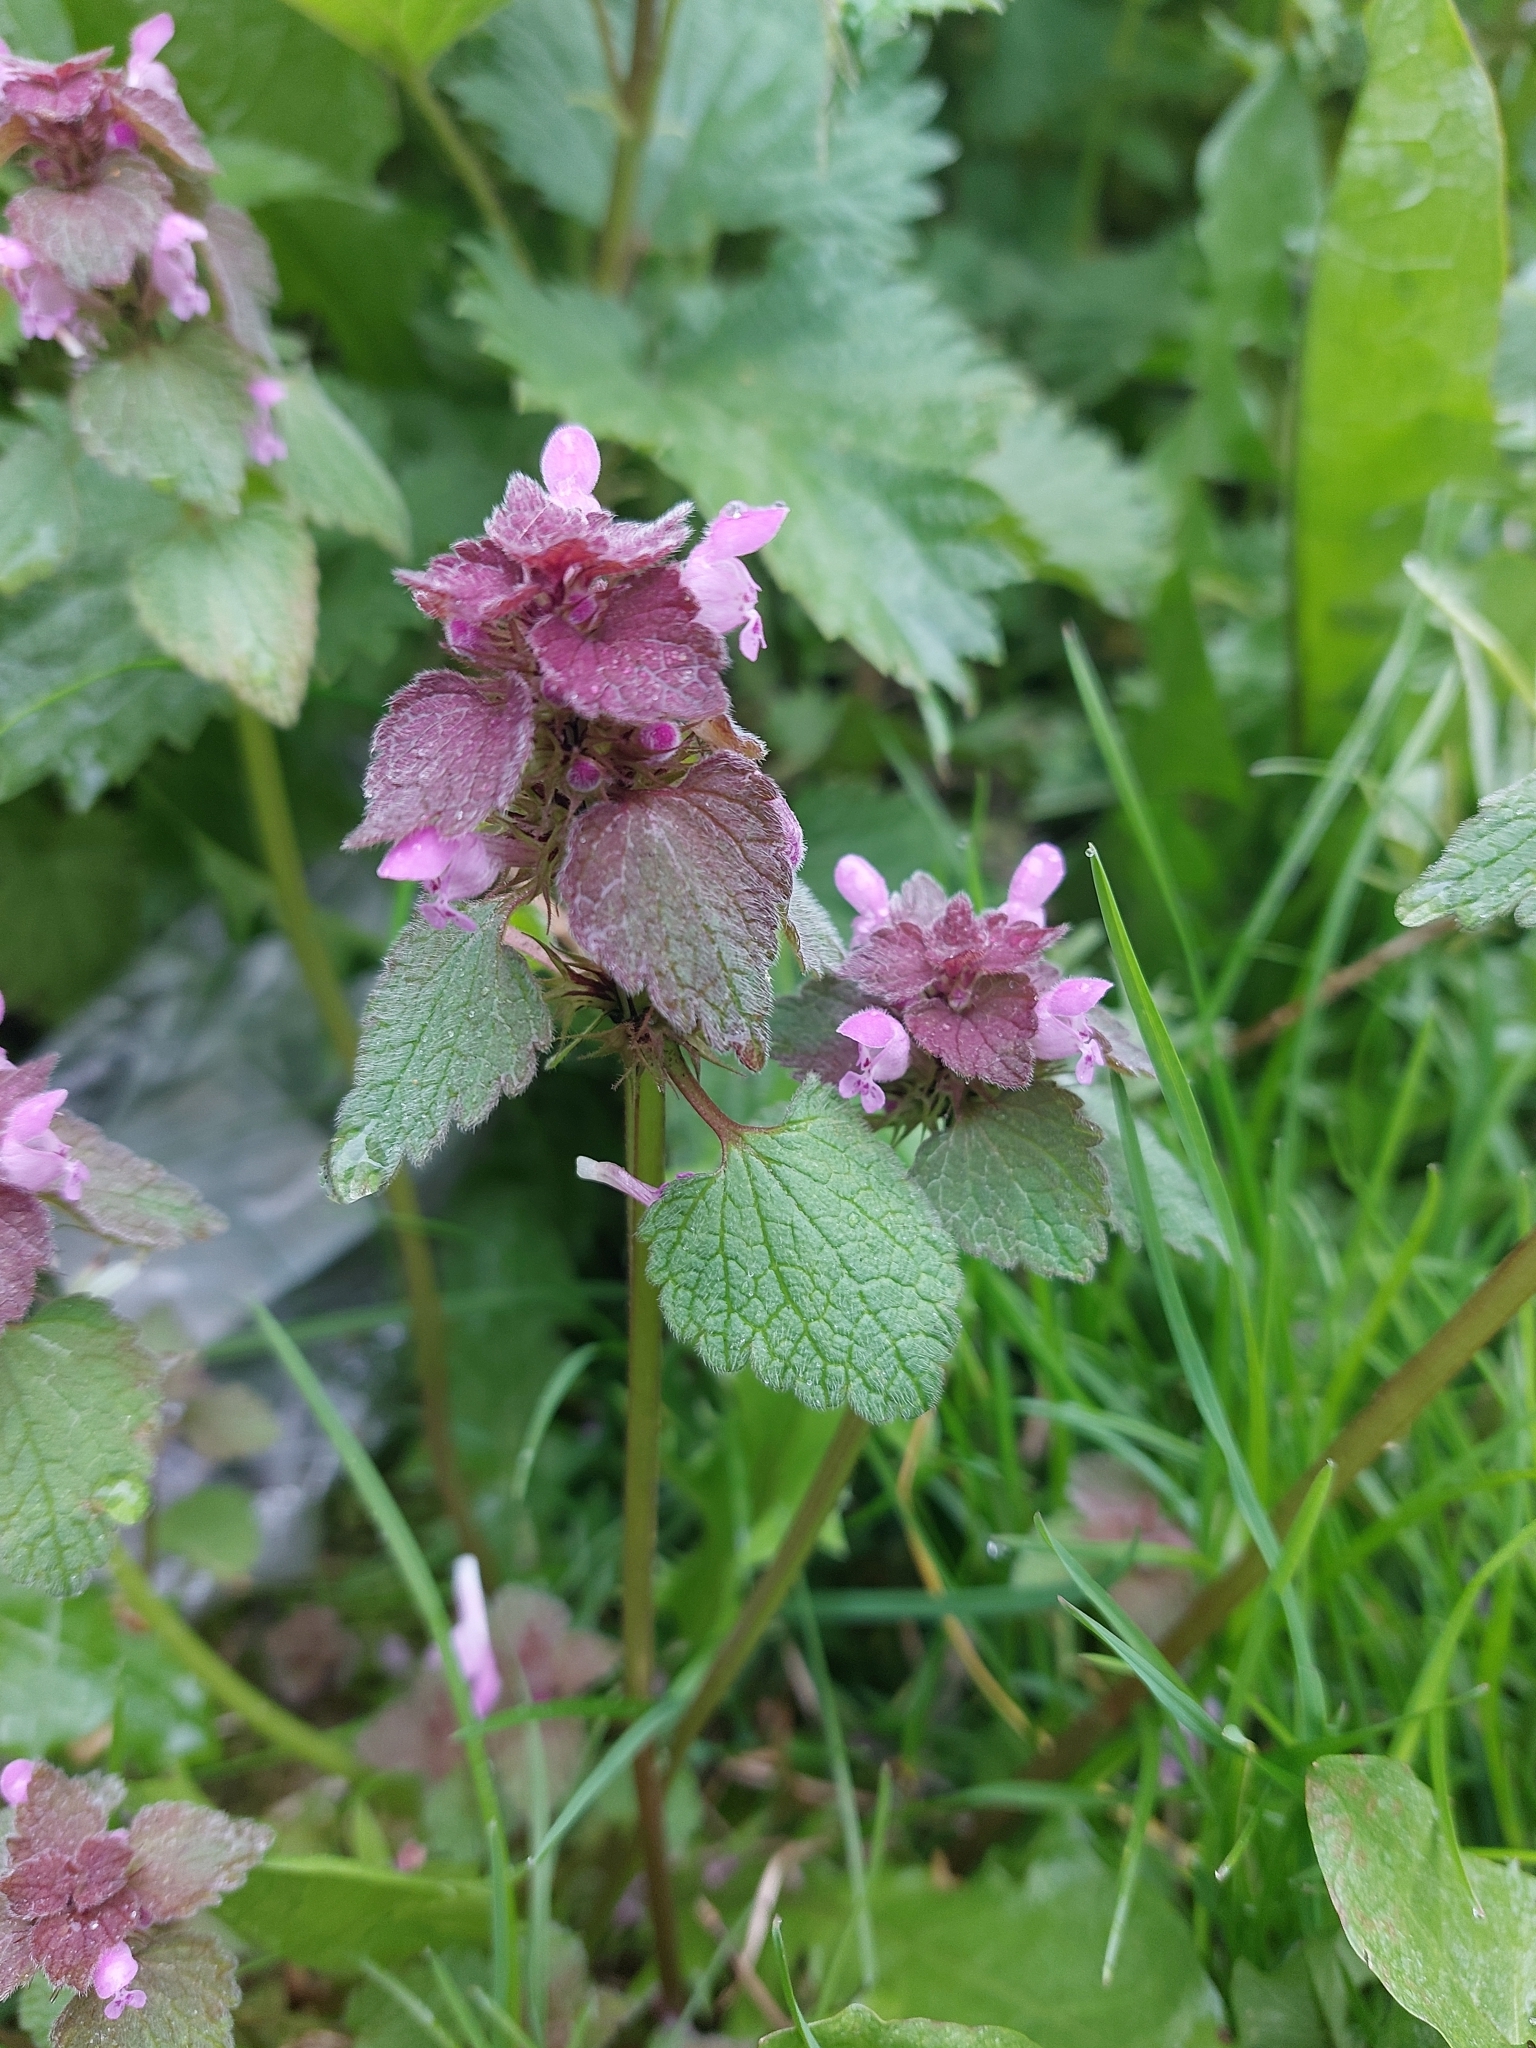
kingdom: Plantae
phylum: Tracheophyta
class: Magnoliopsida
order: Lamiales
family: Lamiaceae
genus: Lamium
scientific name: Lamium purpureum
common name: Red dead-nettle
